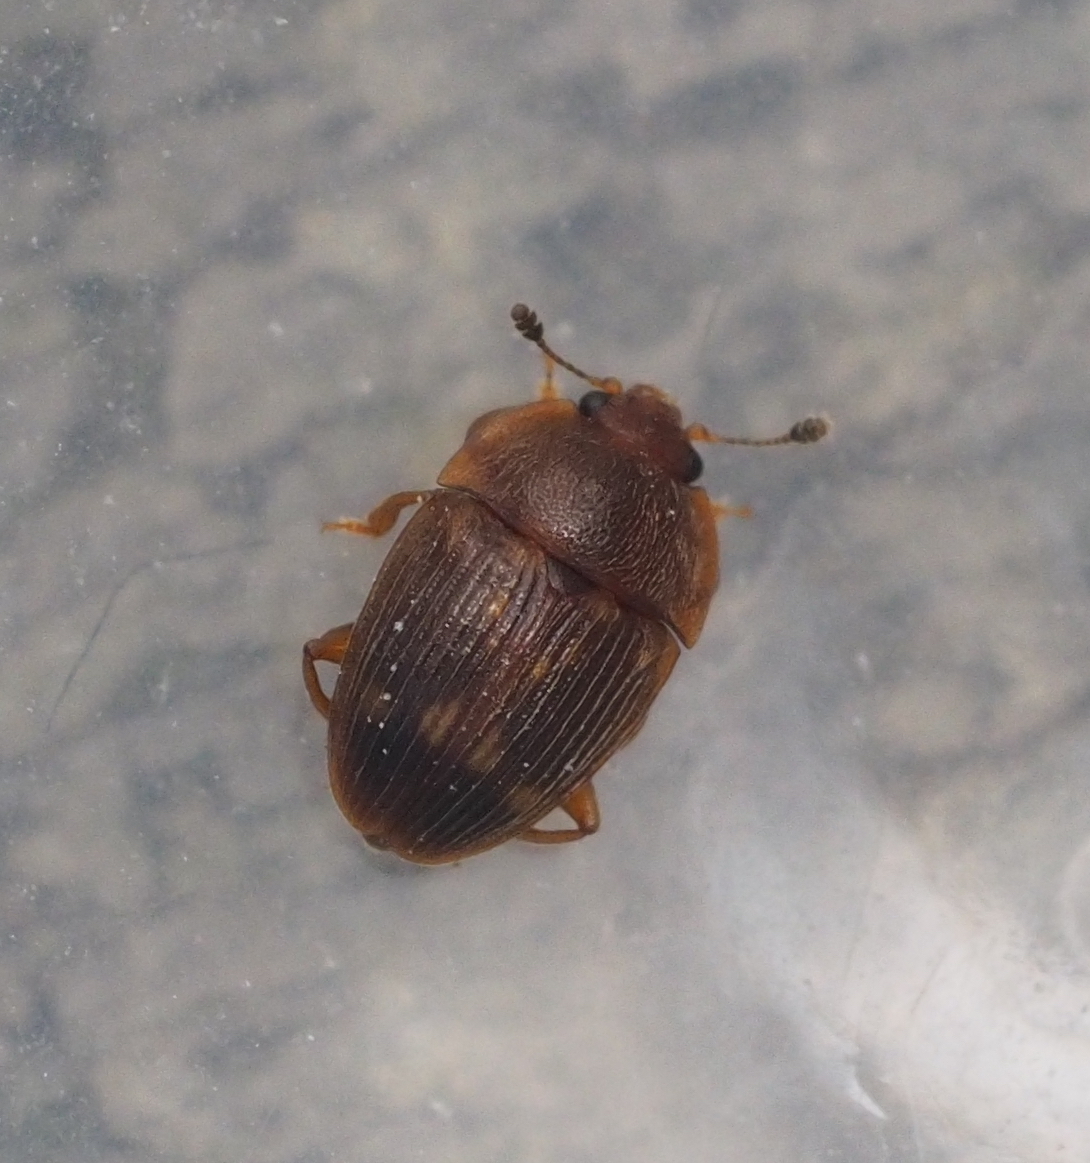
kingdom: Animalia
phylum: Arthropoda
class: Insecta
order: Coleoptera
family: Nitidulidae
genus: Stelidota
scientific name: Stelidota geminata
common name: Strawberry sap beetle
